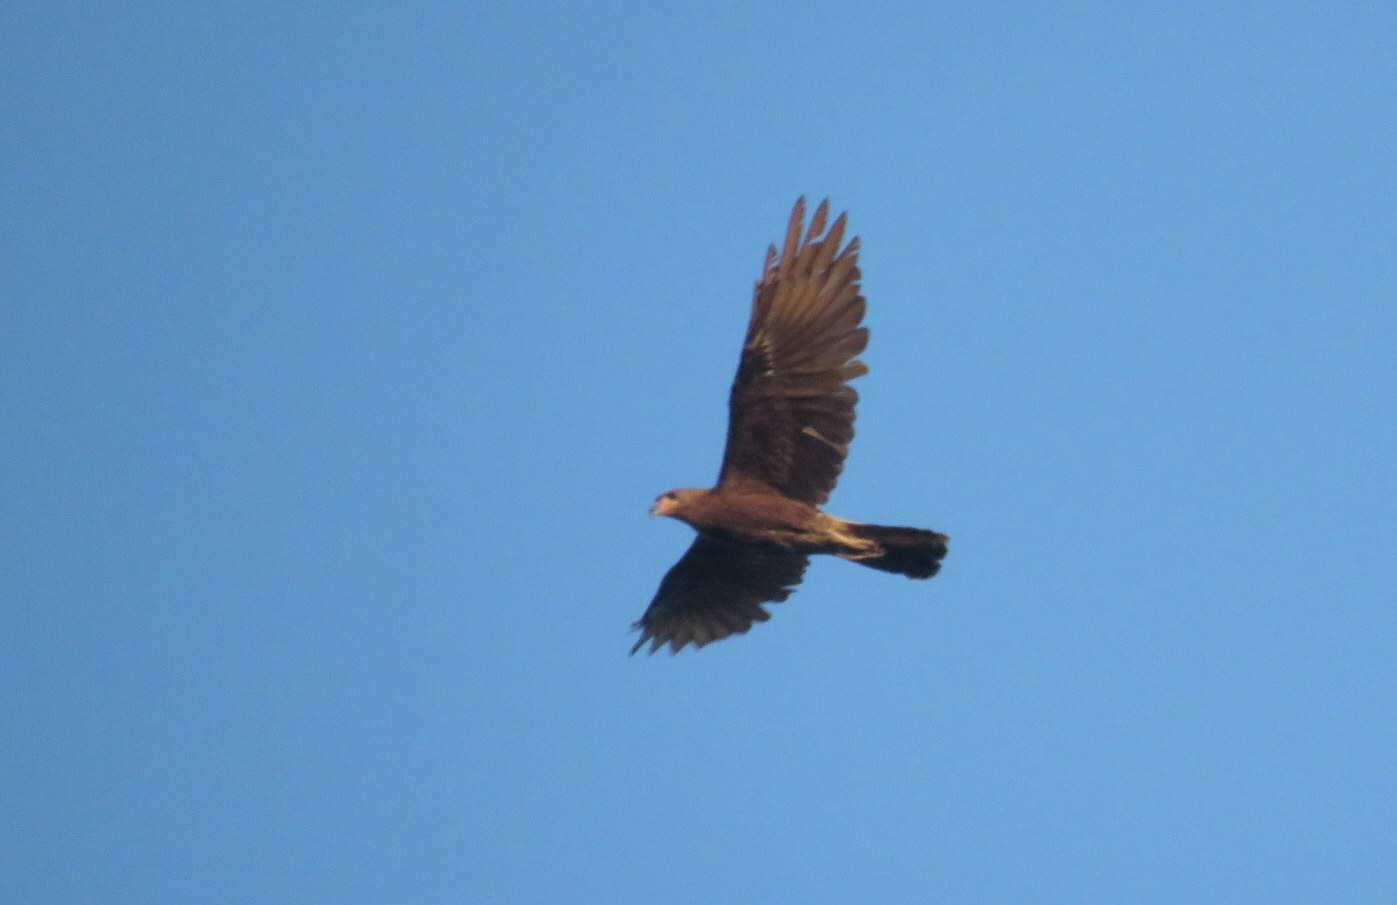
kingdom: Animalia
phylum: Chordata
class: Aves
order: Falconiformes
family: Falconidae
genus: Daptrius
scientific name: Daptrius
